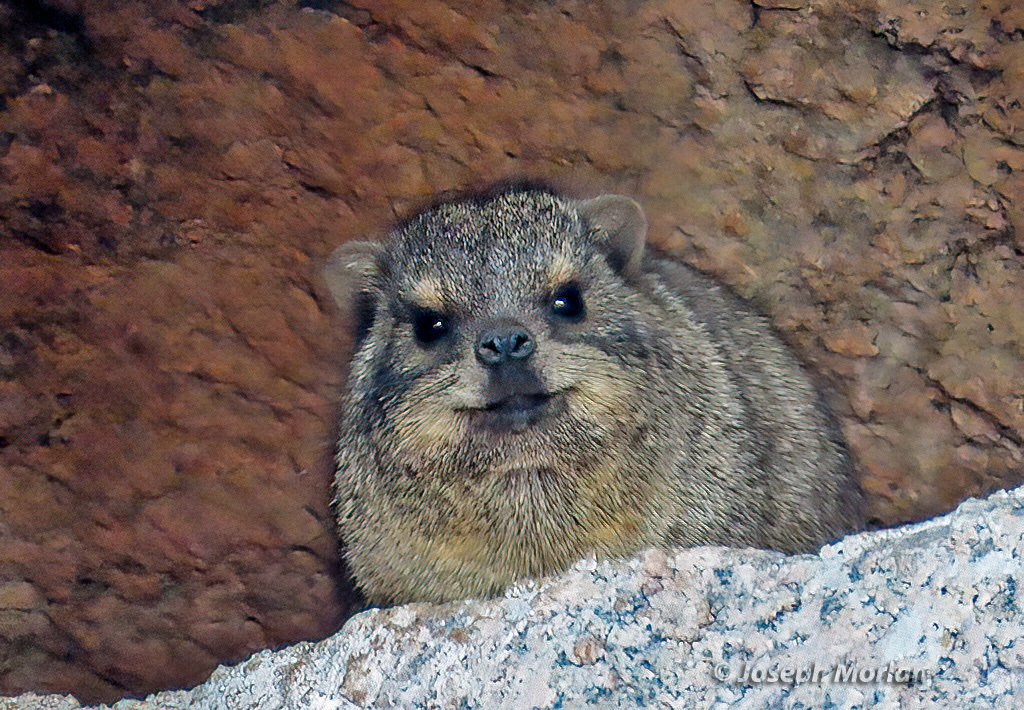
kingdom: Animalia
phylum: Chordata
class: Mammalia
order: Hyracoidea
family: Procaviidae
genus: Procavia
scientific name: Procavia capensis
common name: Rock hyrax
